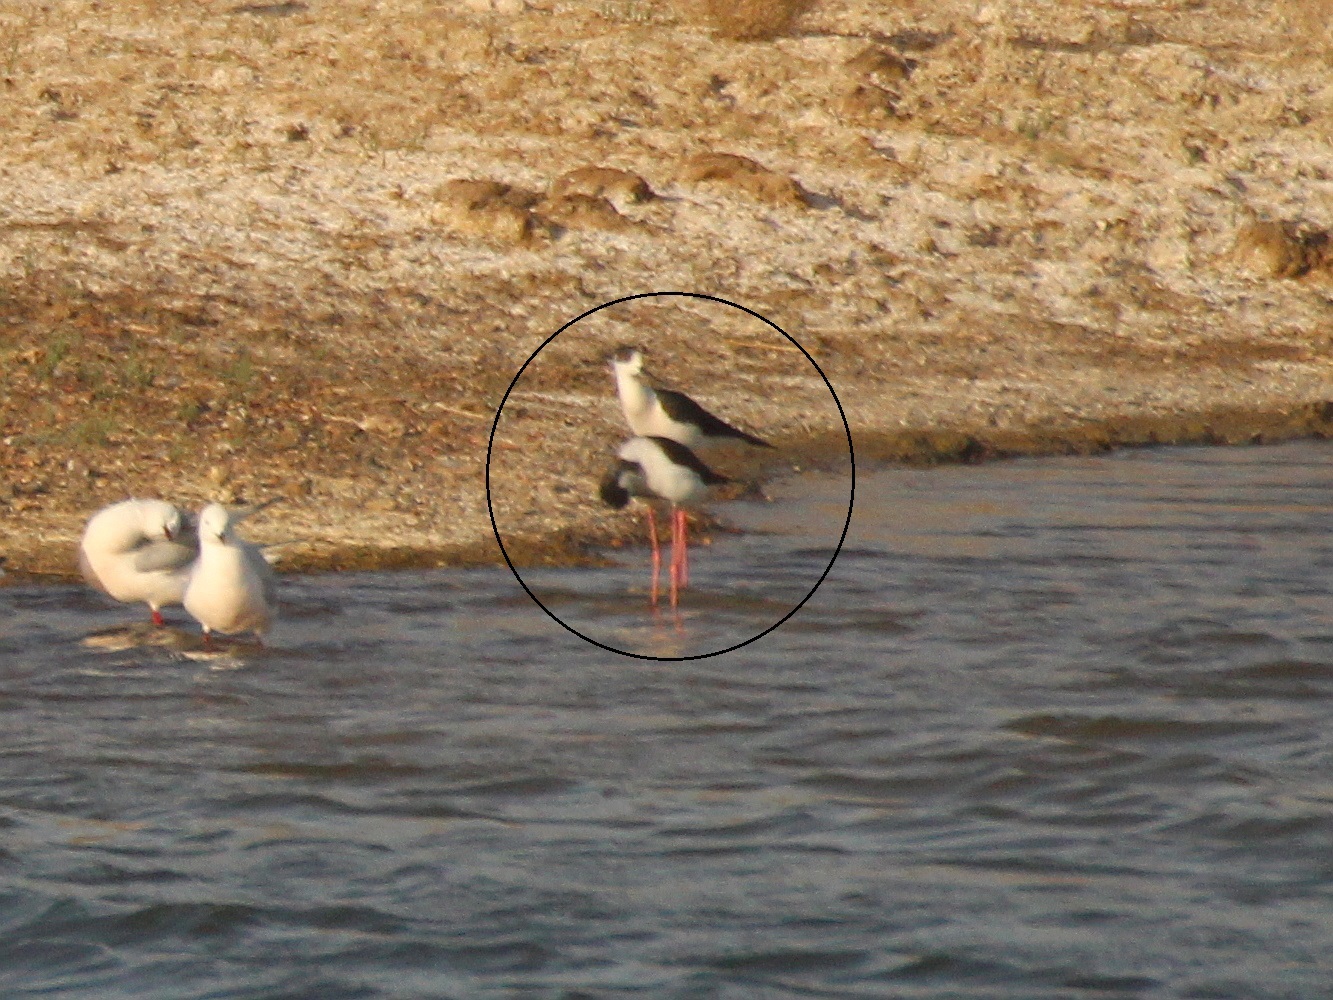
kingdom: Animalia
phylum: Chordata
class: Aves
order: Charadriiformes
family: Recurvirostridae
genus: Himantopus
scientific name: Himantopus himantopus
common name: Black-winged stilt
